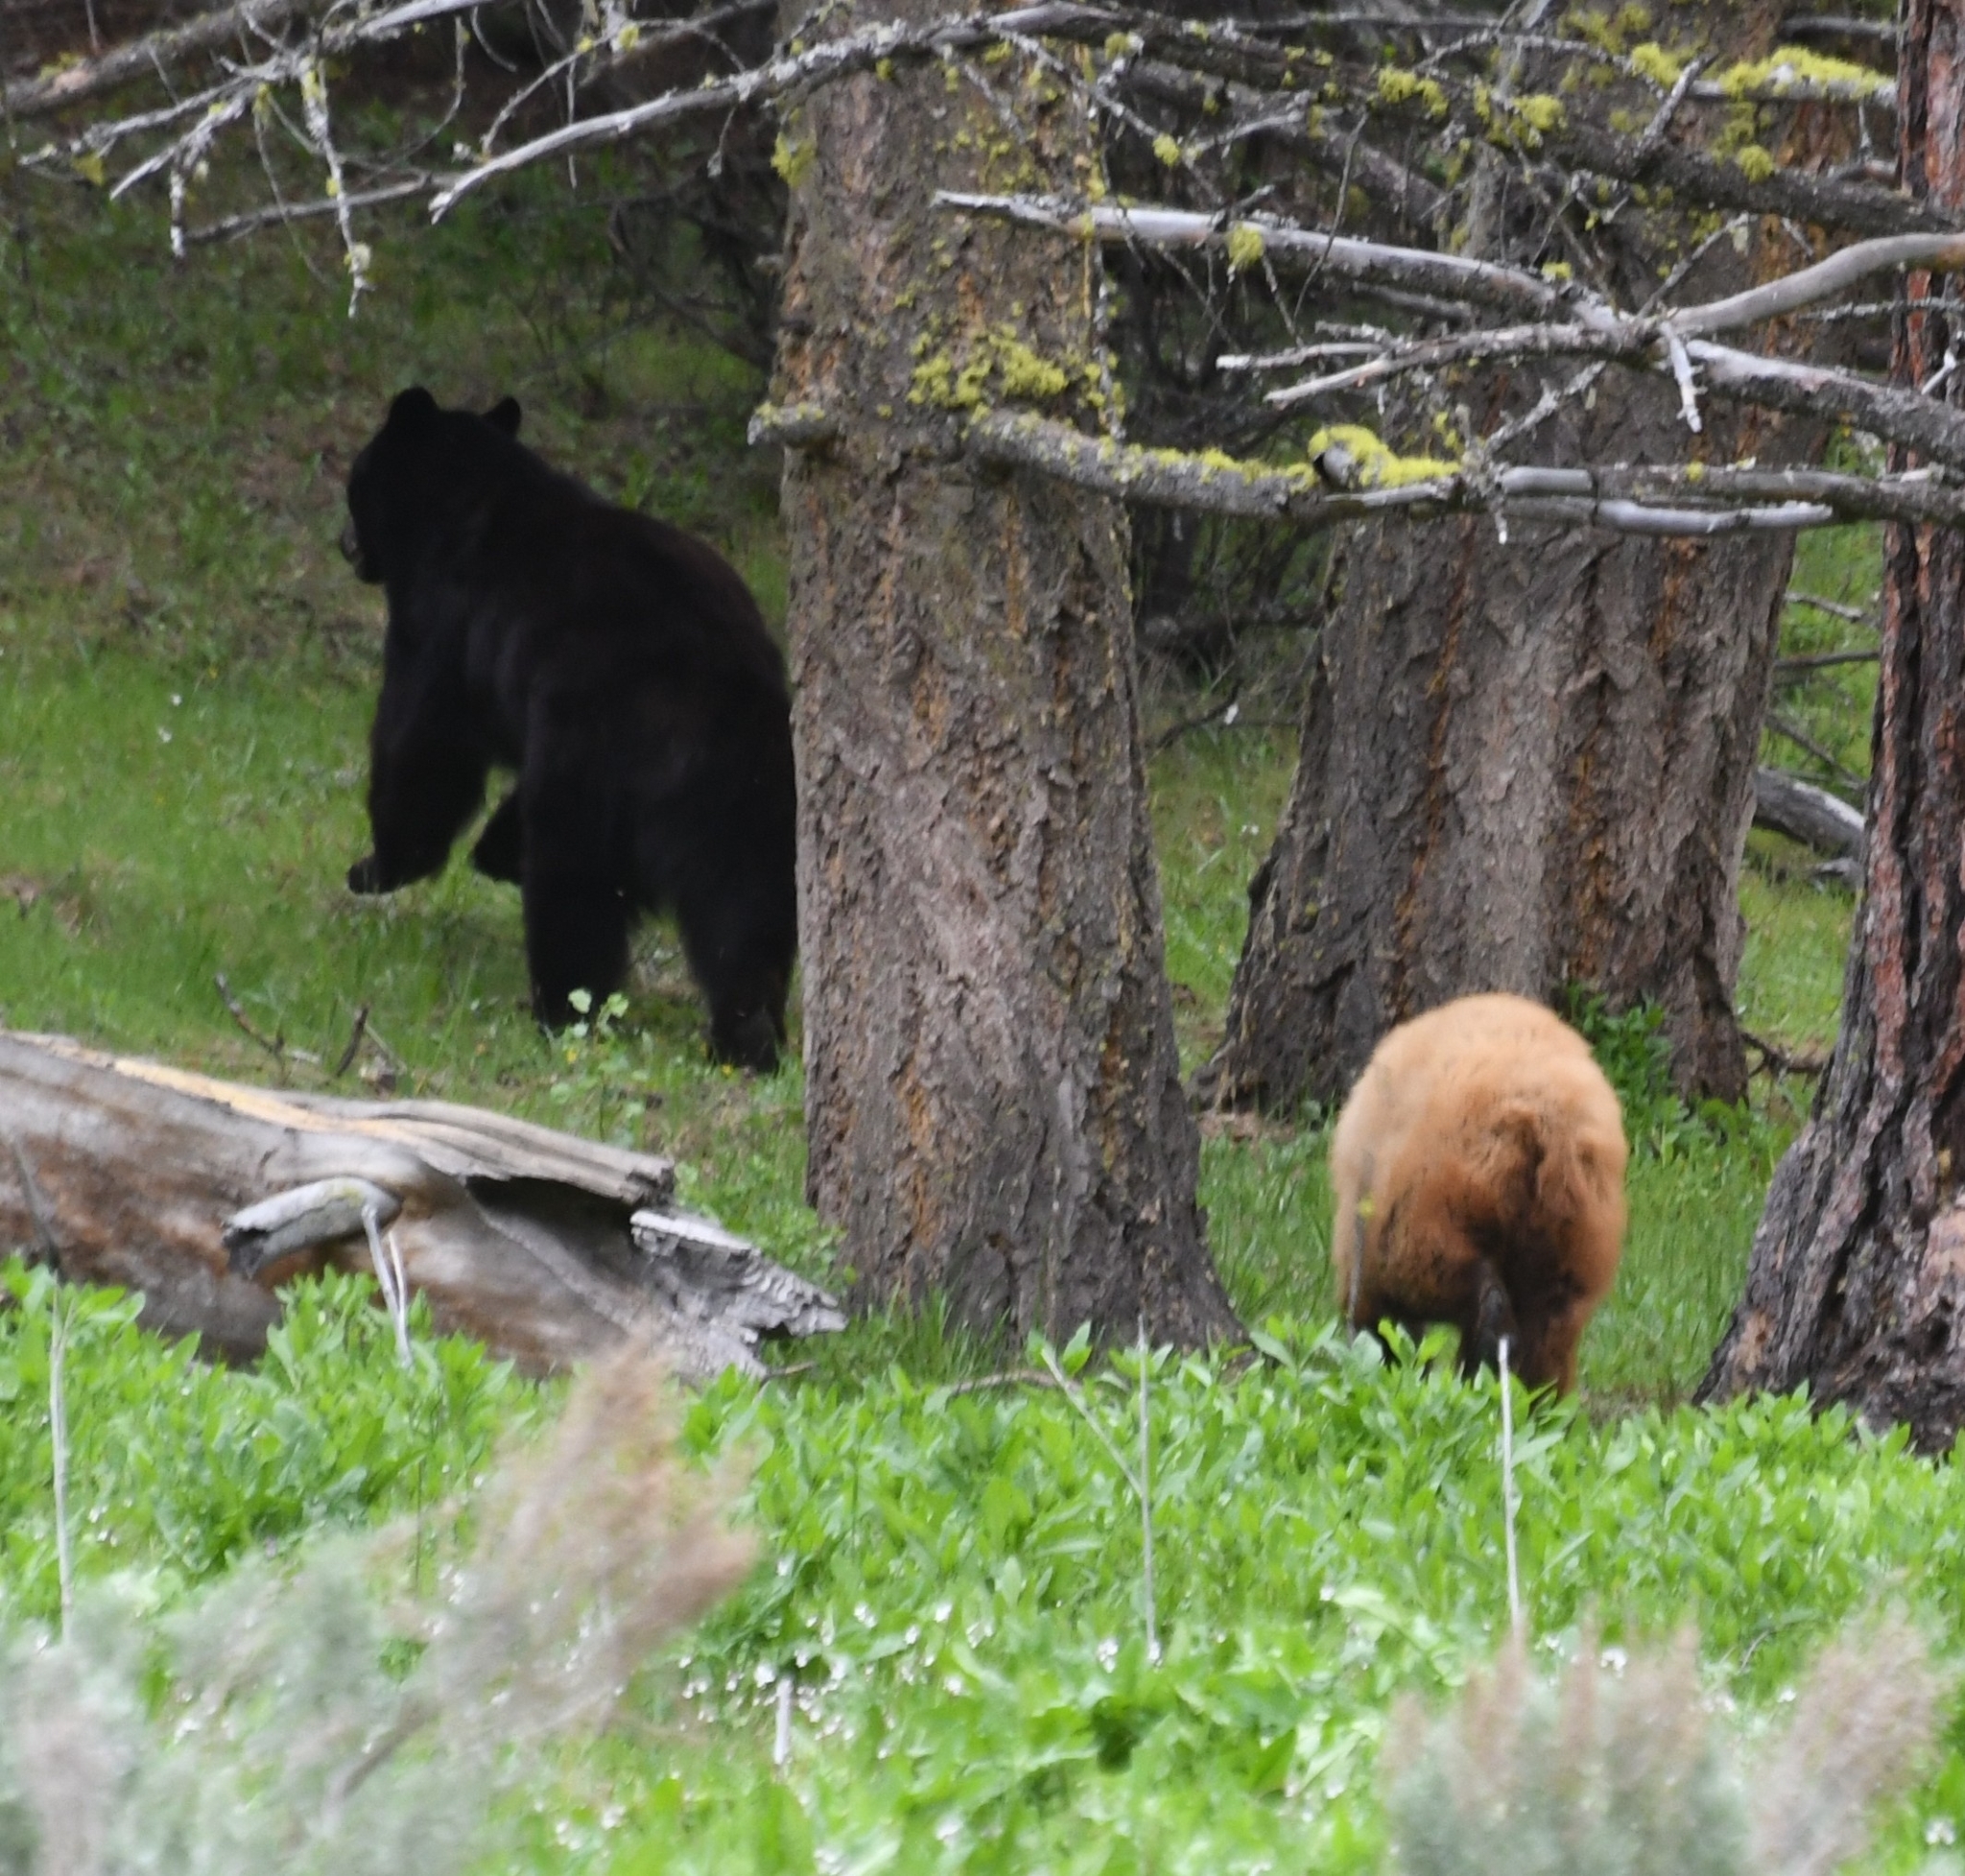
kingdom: Animalia
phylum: Chordata
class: Mammalia
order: Carnivora
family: Ursidae
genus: Ursus
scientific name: Ursus americanus
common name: American black bear
